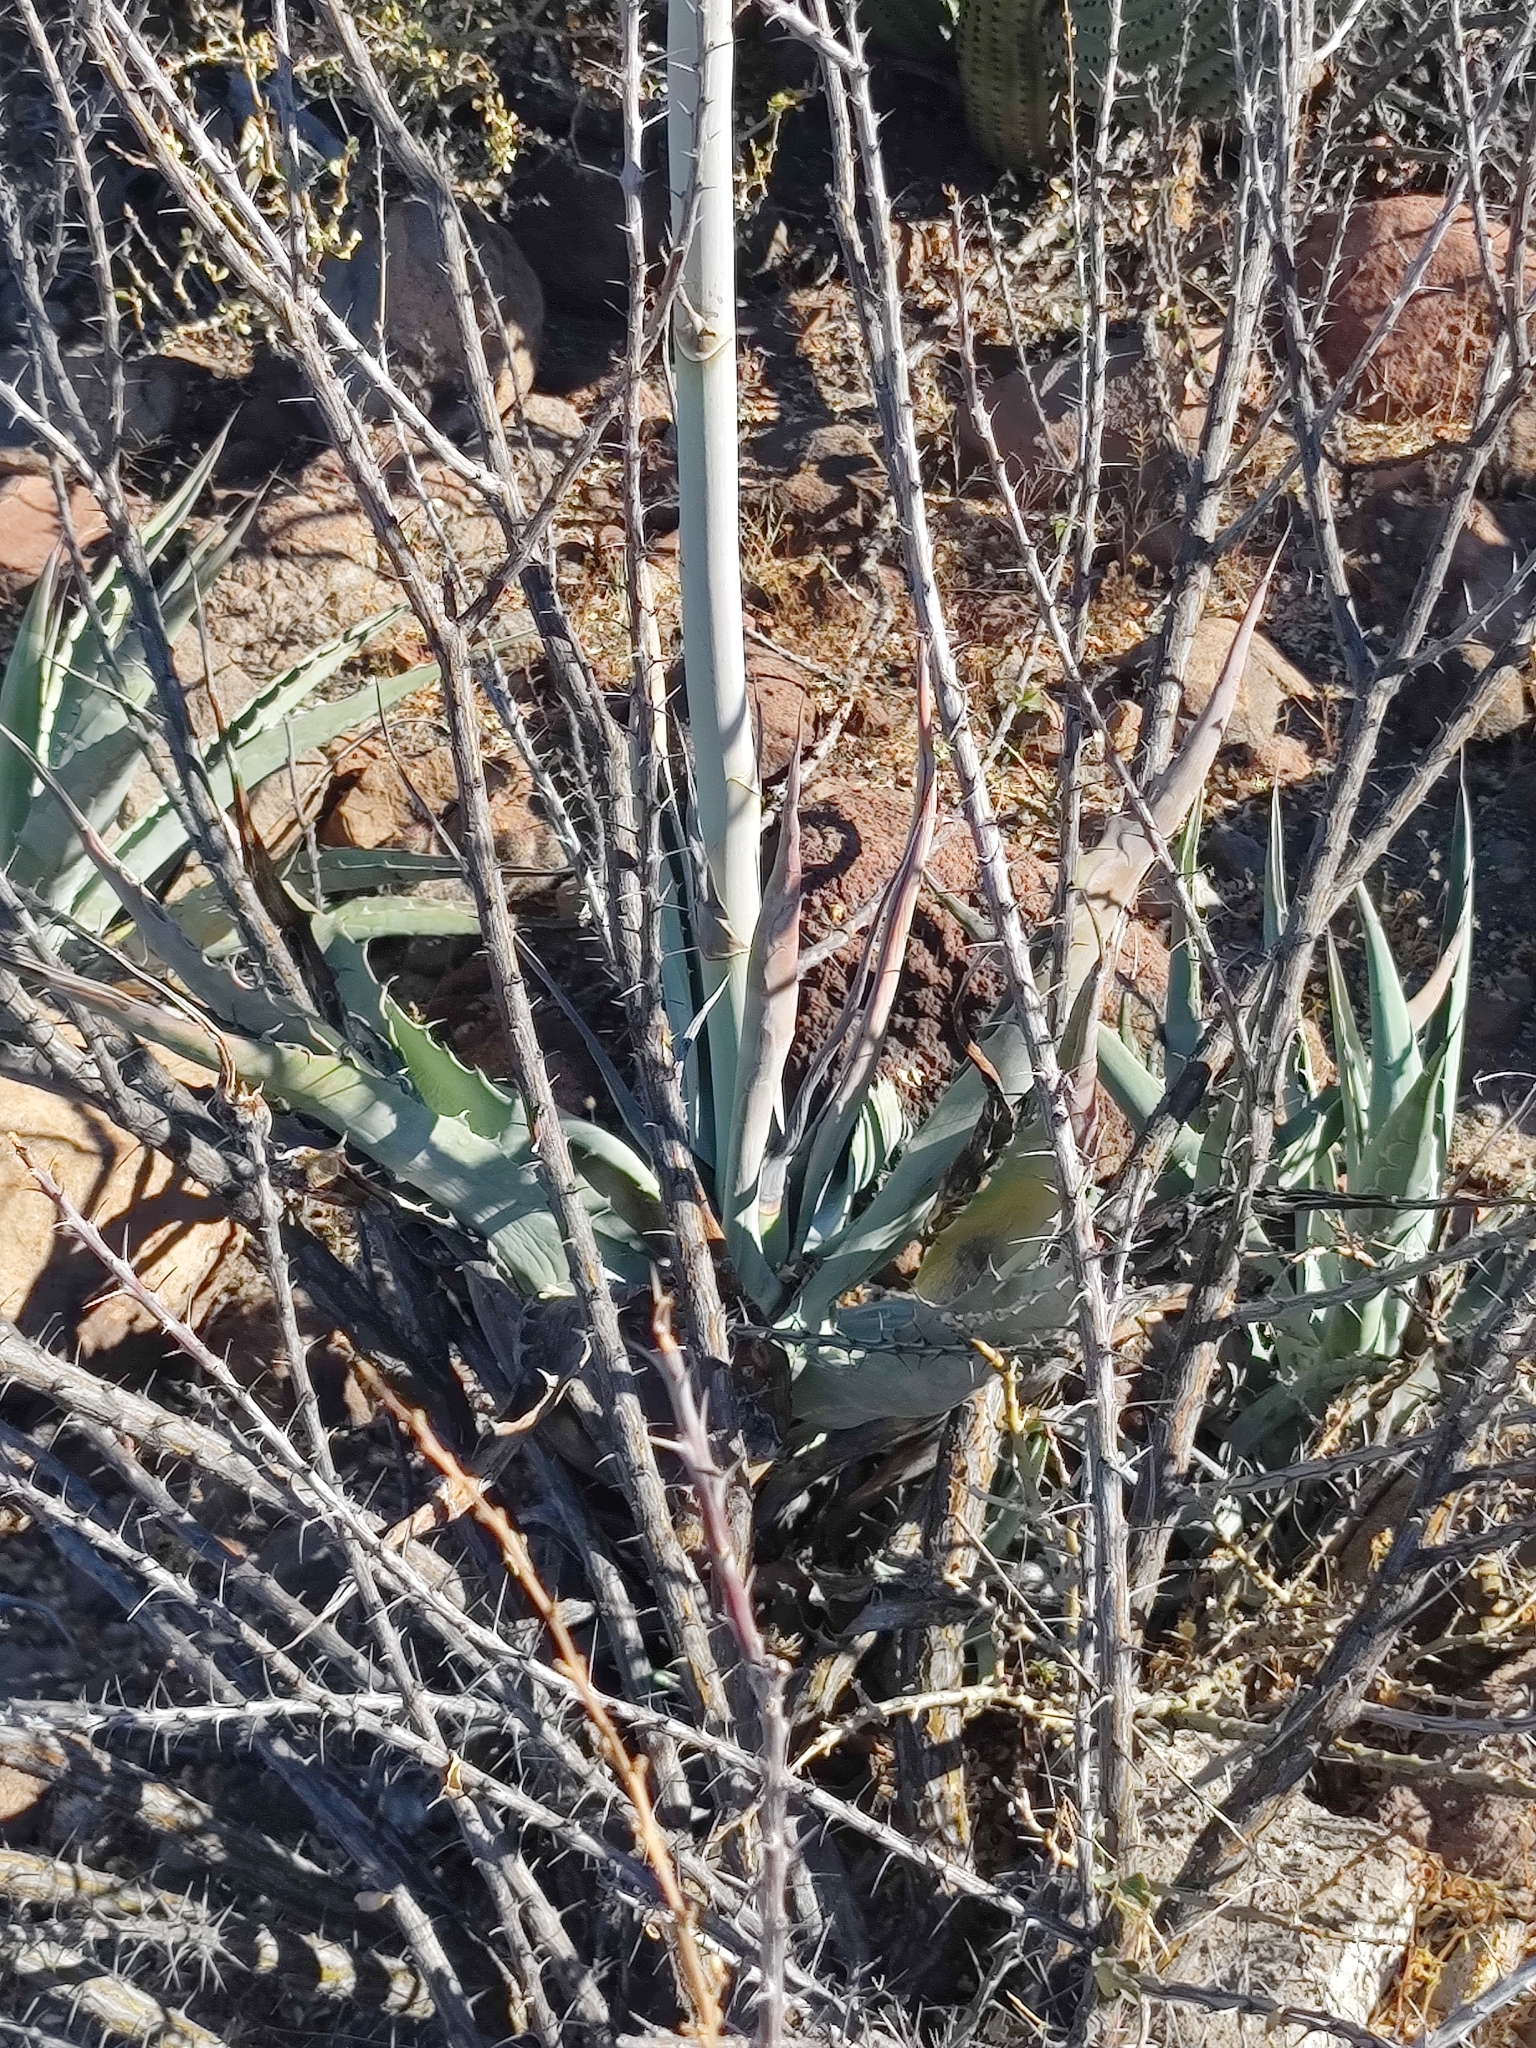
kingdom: Plantae
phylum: Tracheophyta
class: Liliopsida
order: Asparagales
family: Asparagaceae
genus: Agave
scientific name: Agave sobria
